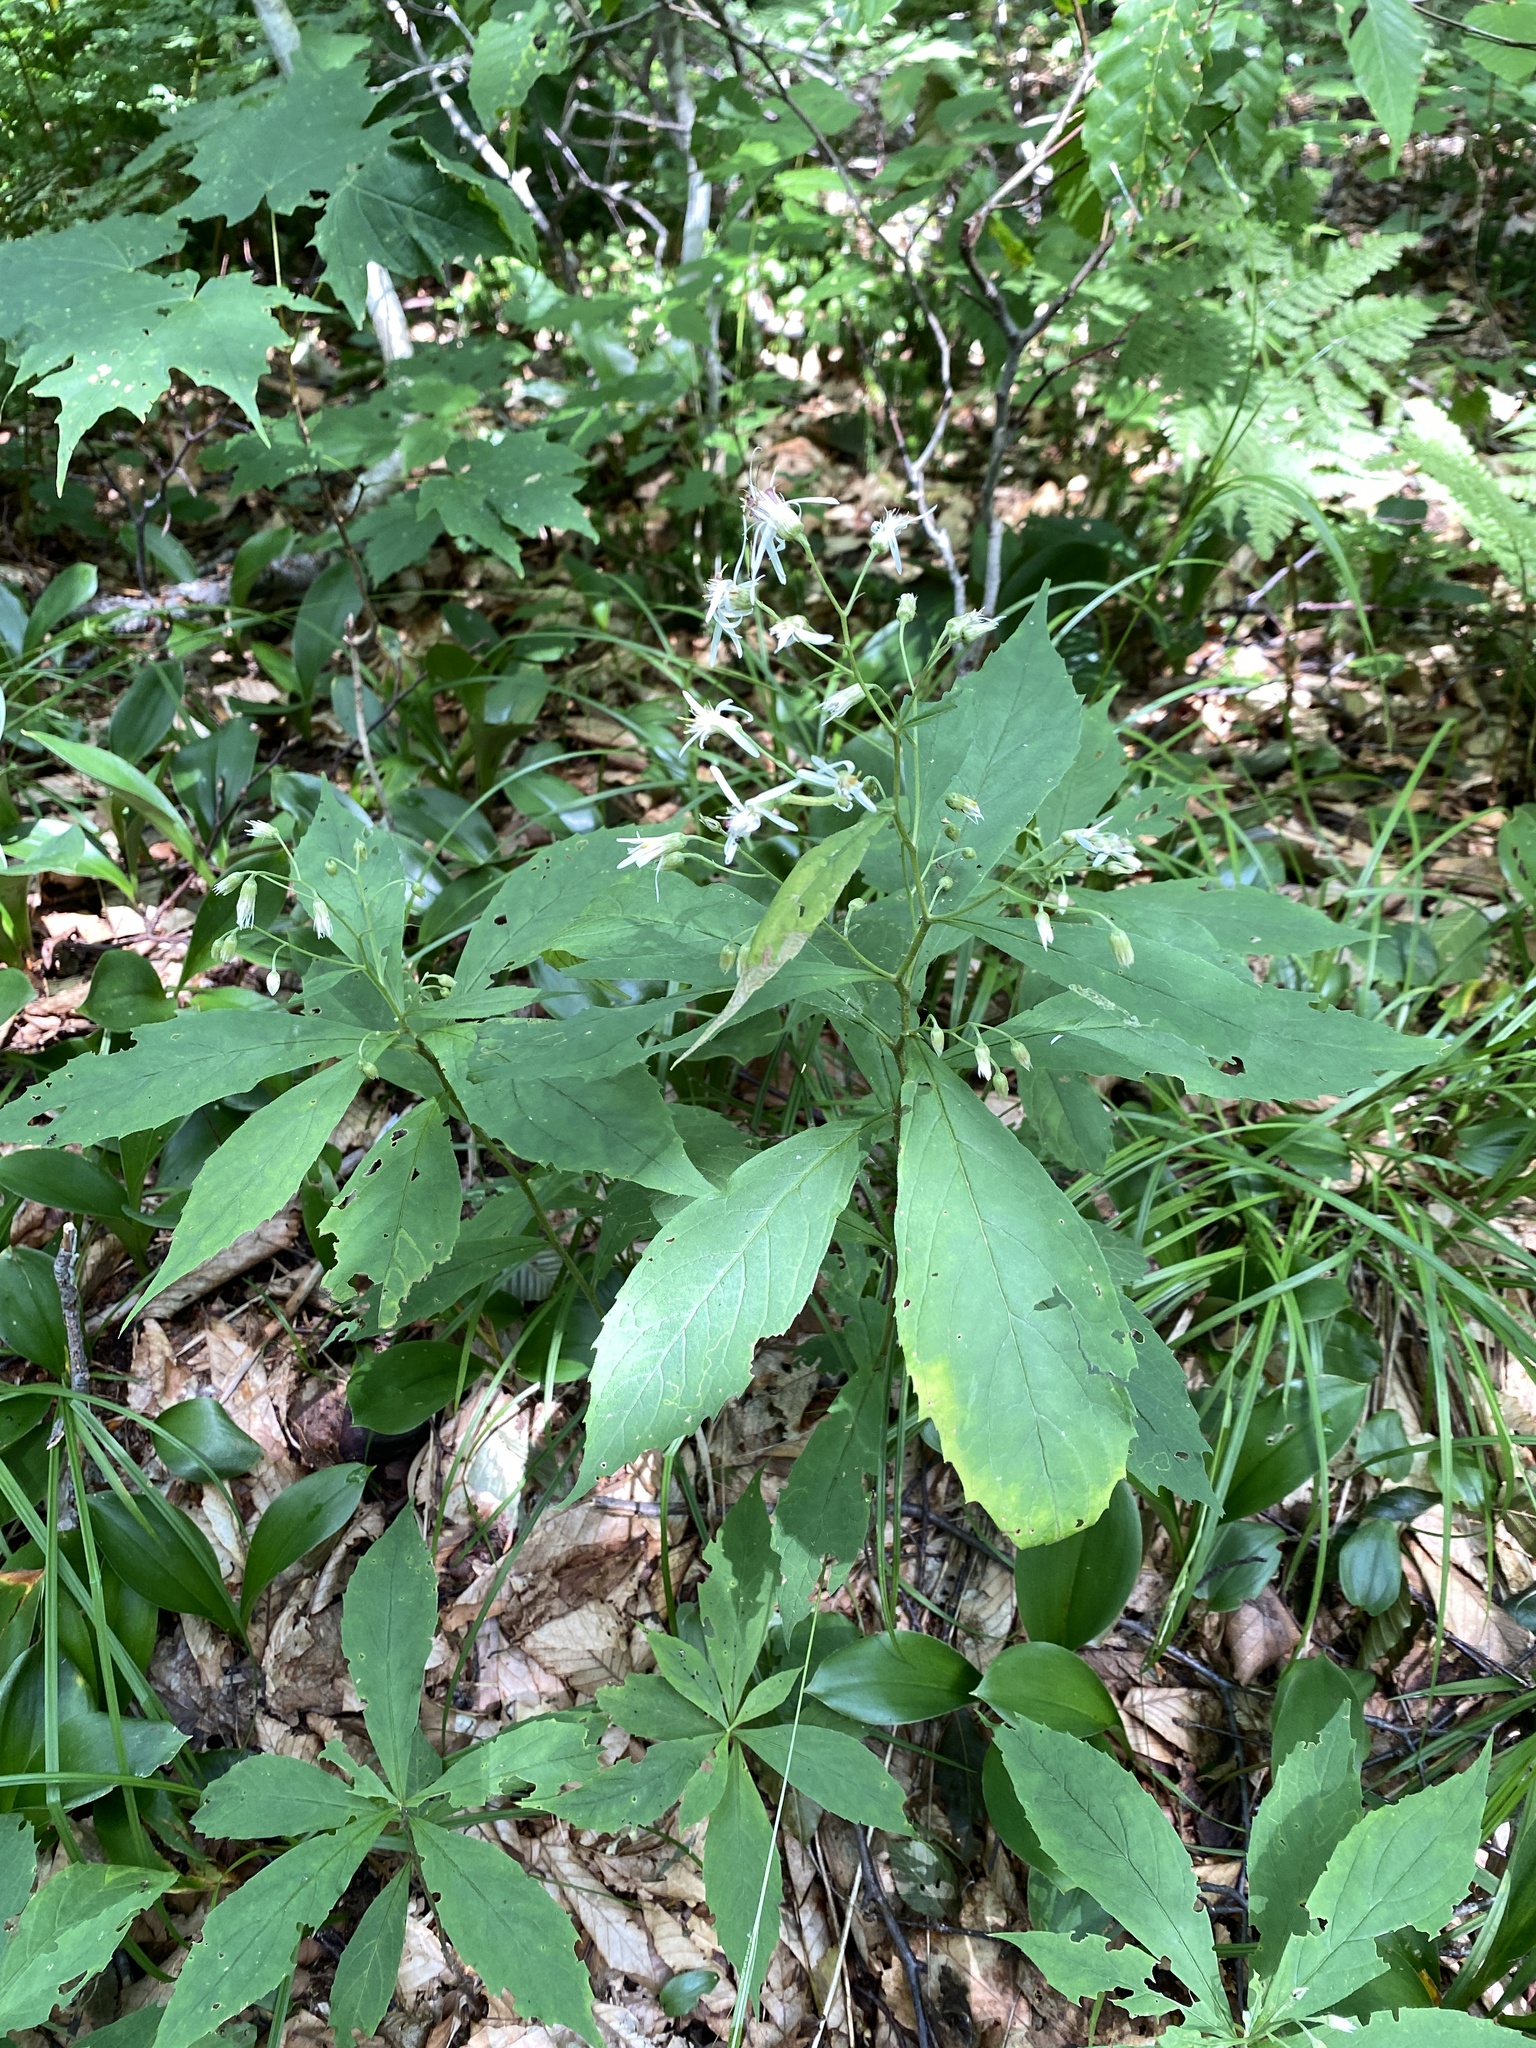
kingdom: Plantae
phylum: Tracheophyta
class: Magnoliopsida
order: Asterales
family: Asteraceae
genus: Oclemena
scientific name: Oclemena acuminata
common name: Mountain aster
